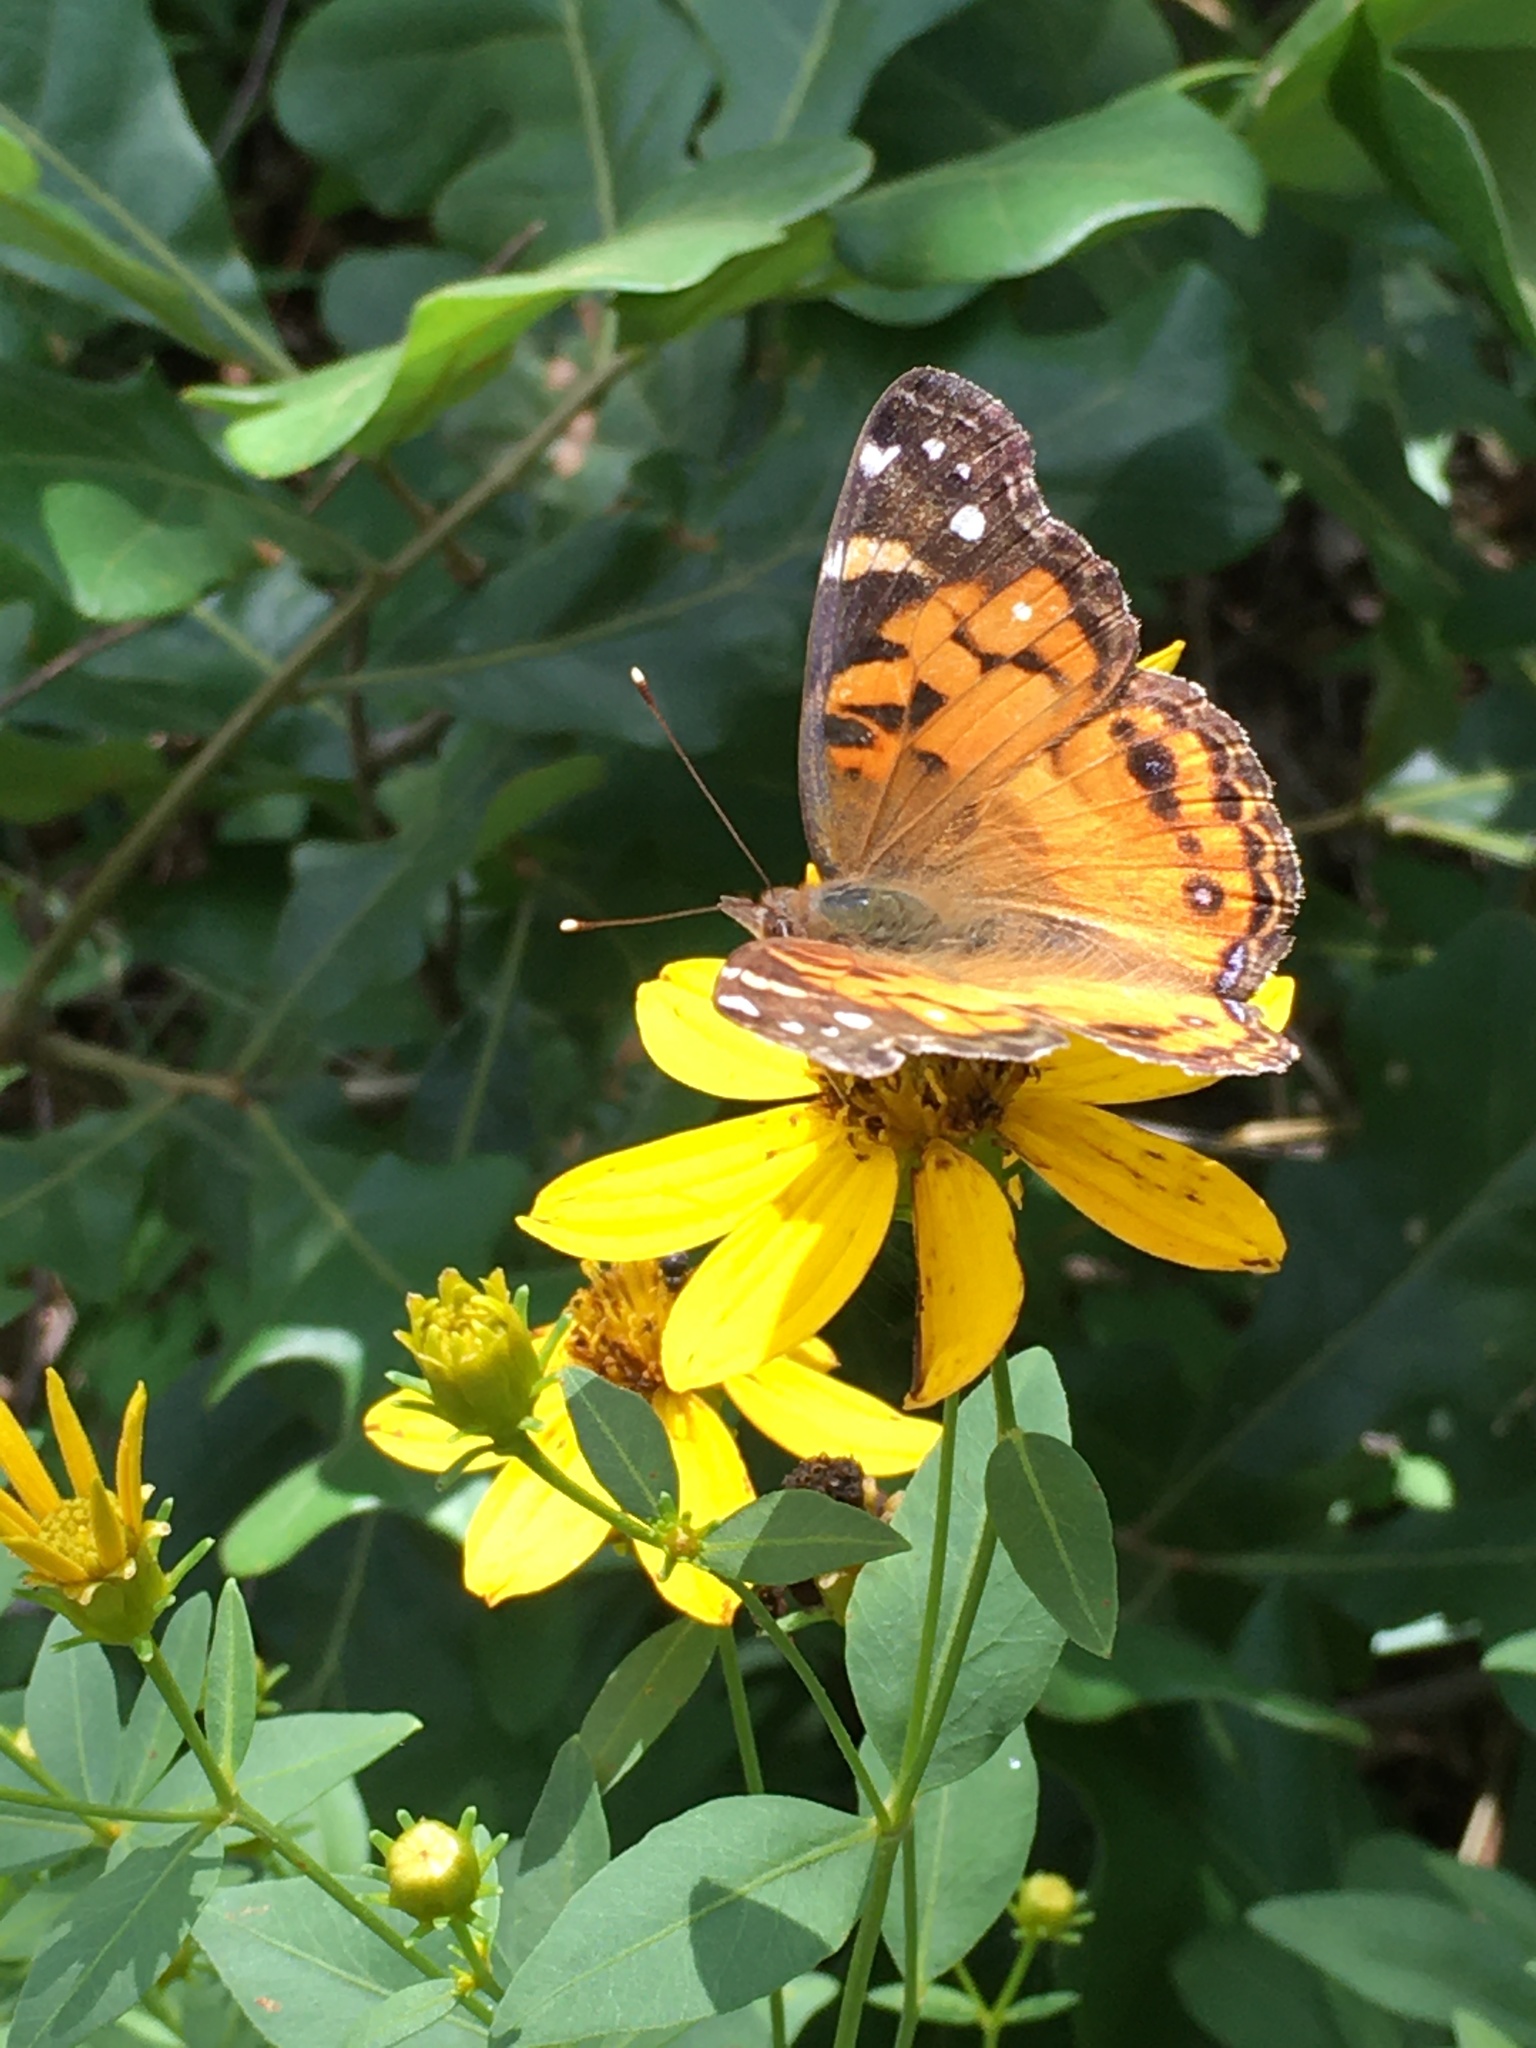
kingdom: Animalia
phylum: Arthropoda
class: Insecta
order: Lepidoptera
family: Nymphalidae
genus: Vanessa
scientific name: Vanessa virginiensis
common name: American lady
